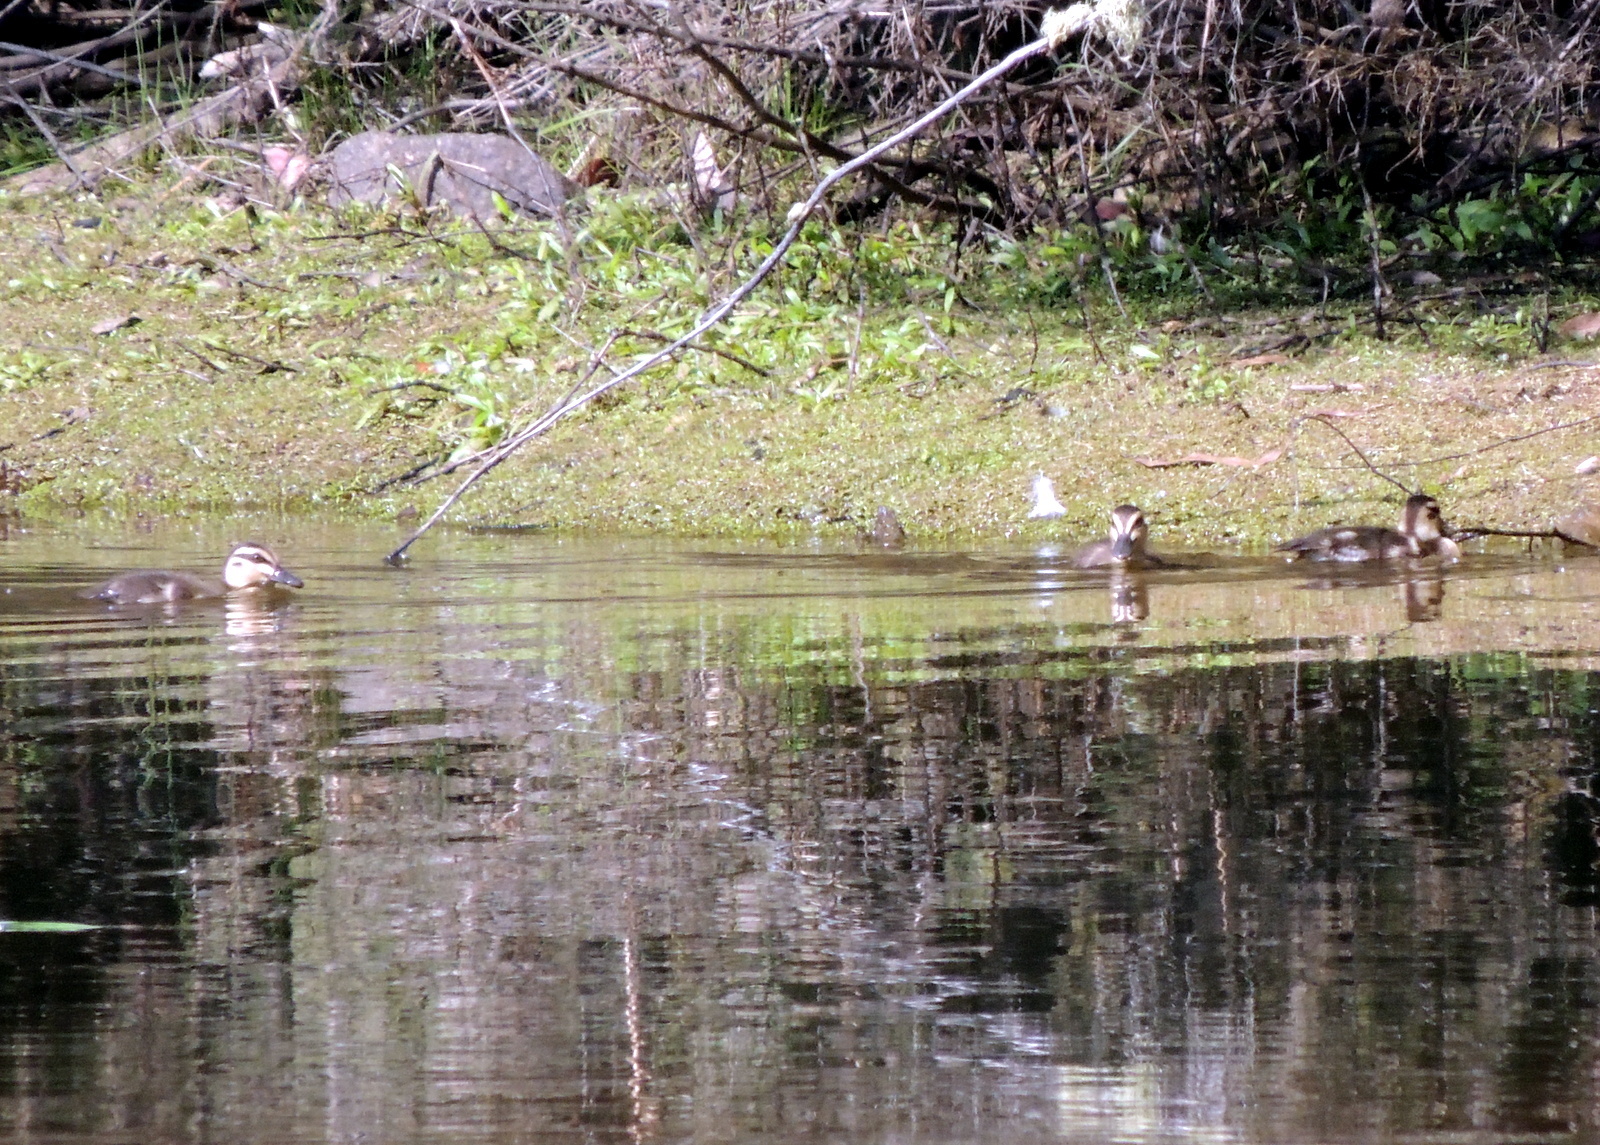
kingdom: Animalia
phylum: Chordata
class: Aves
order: Anseriformes
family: Anatidae
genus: Anas
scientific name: Anas superciliosa
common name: Pacific black duck
